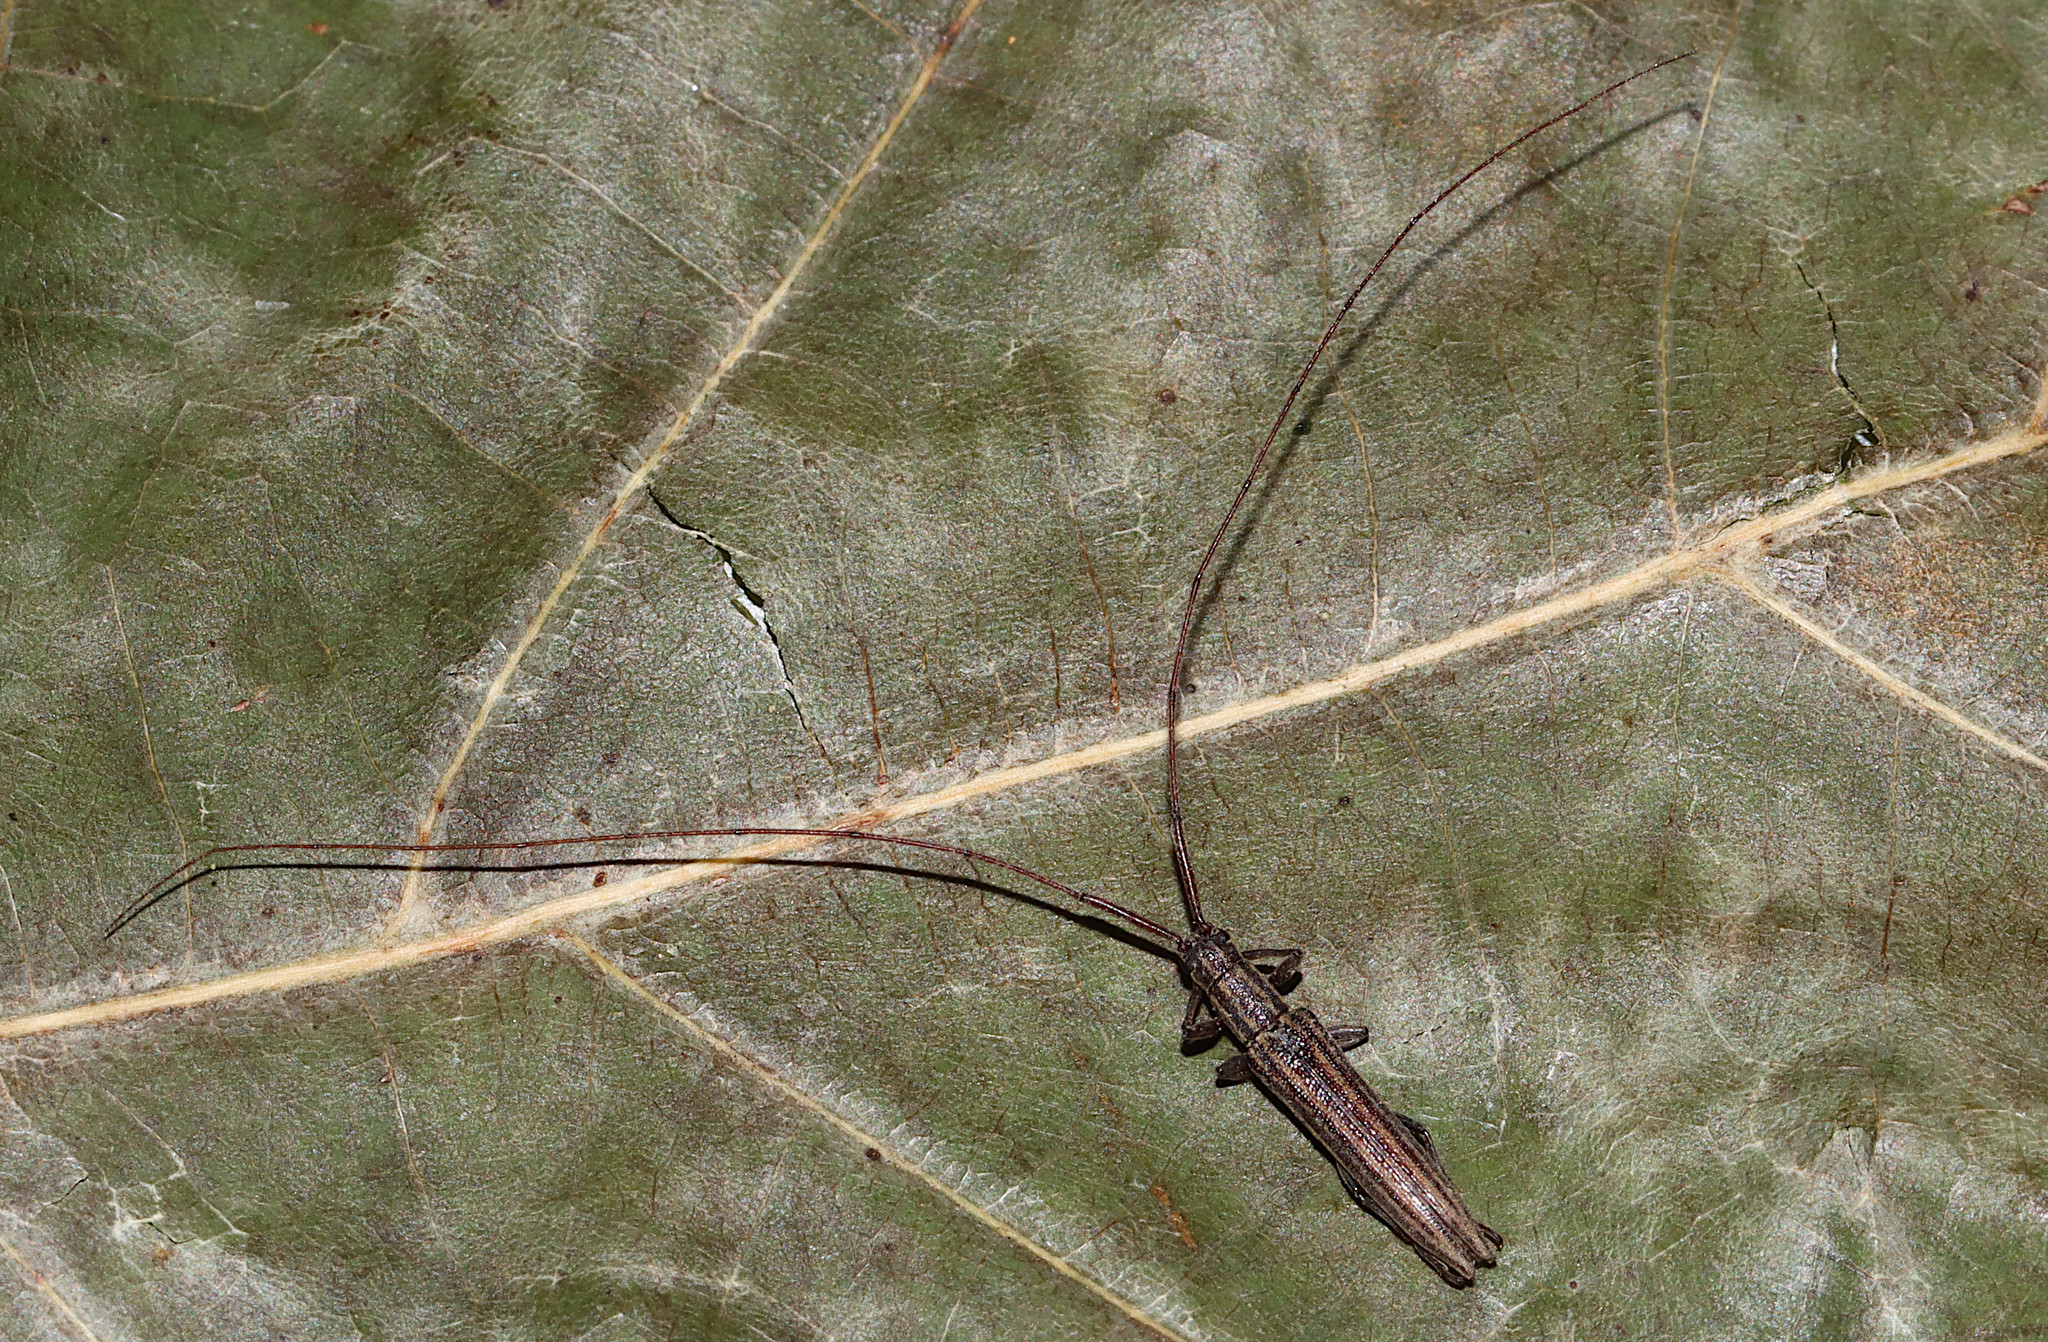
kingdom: Animalia
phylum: Arthropoda
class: Insecta
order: Coleoptera
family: Cerambycidae
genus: Hippopsis
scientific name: Hippopsis
